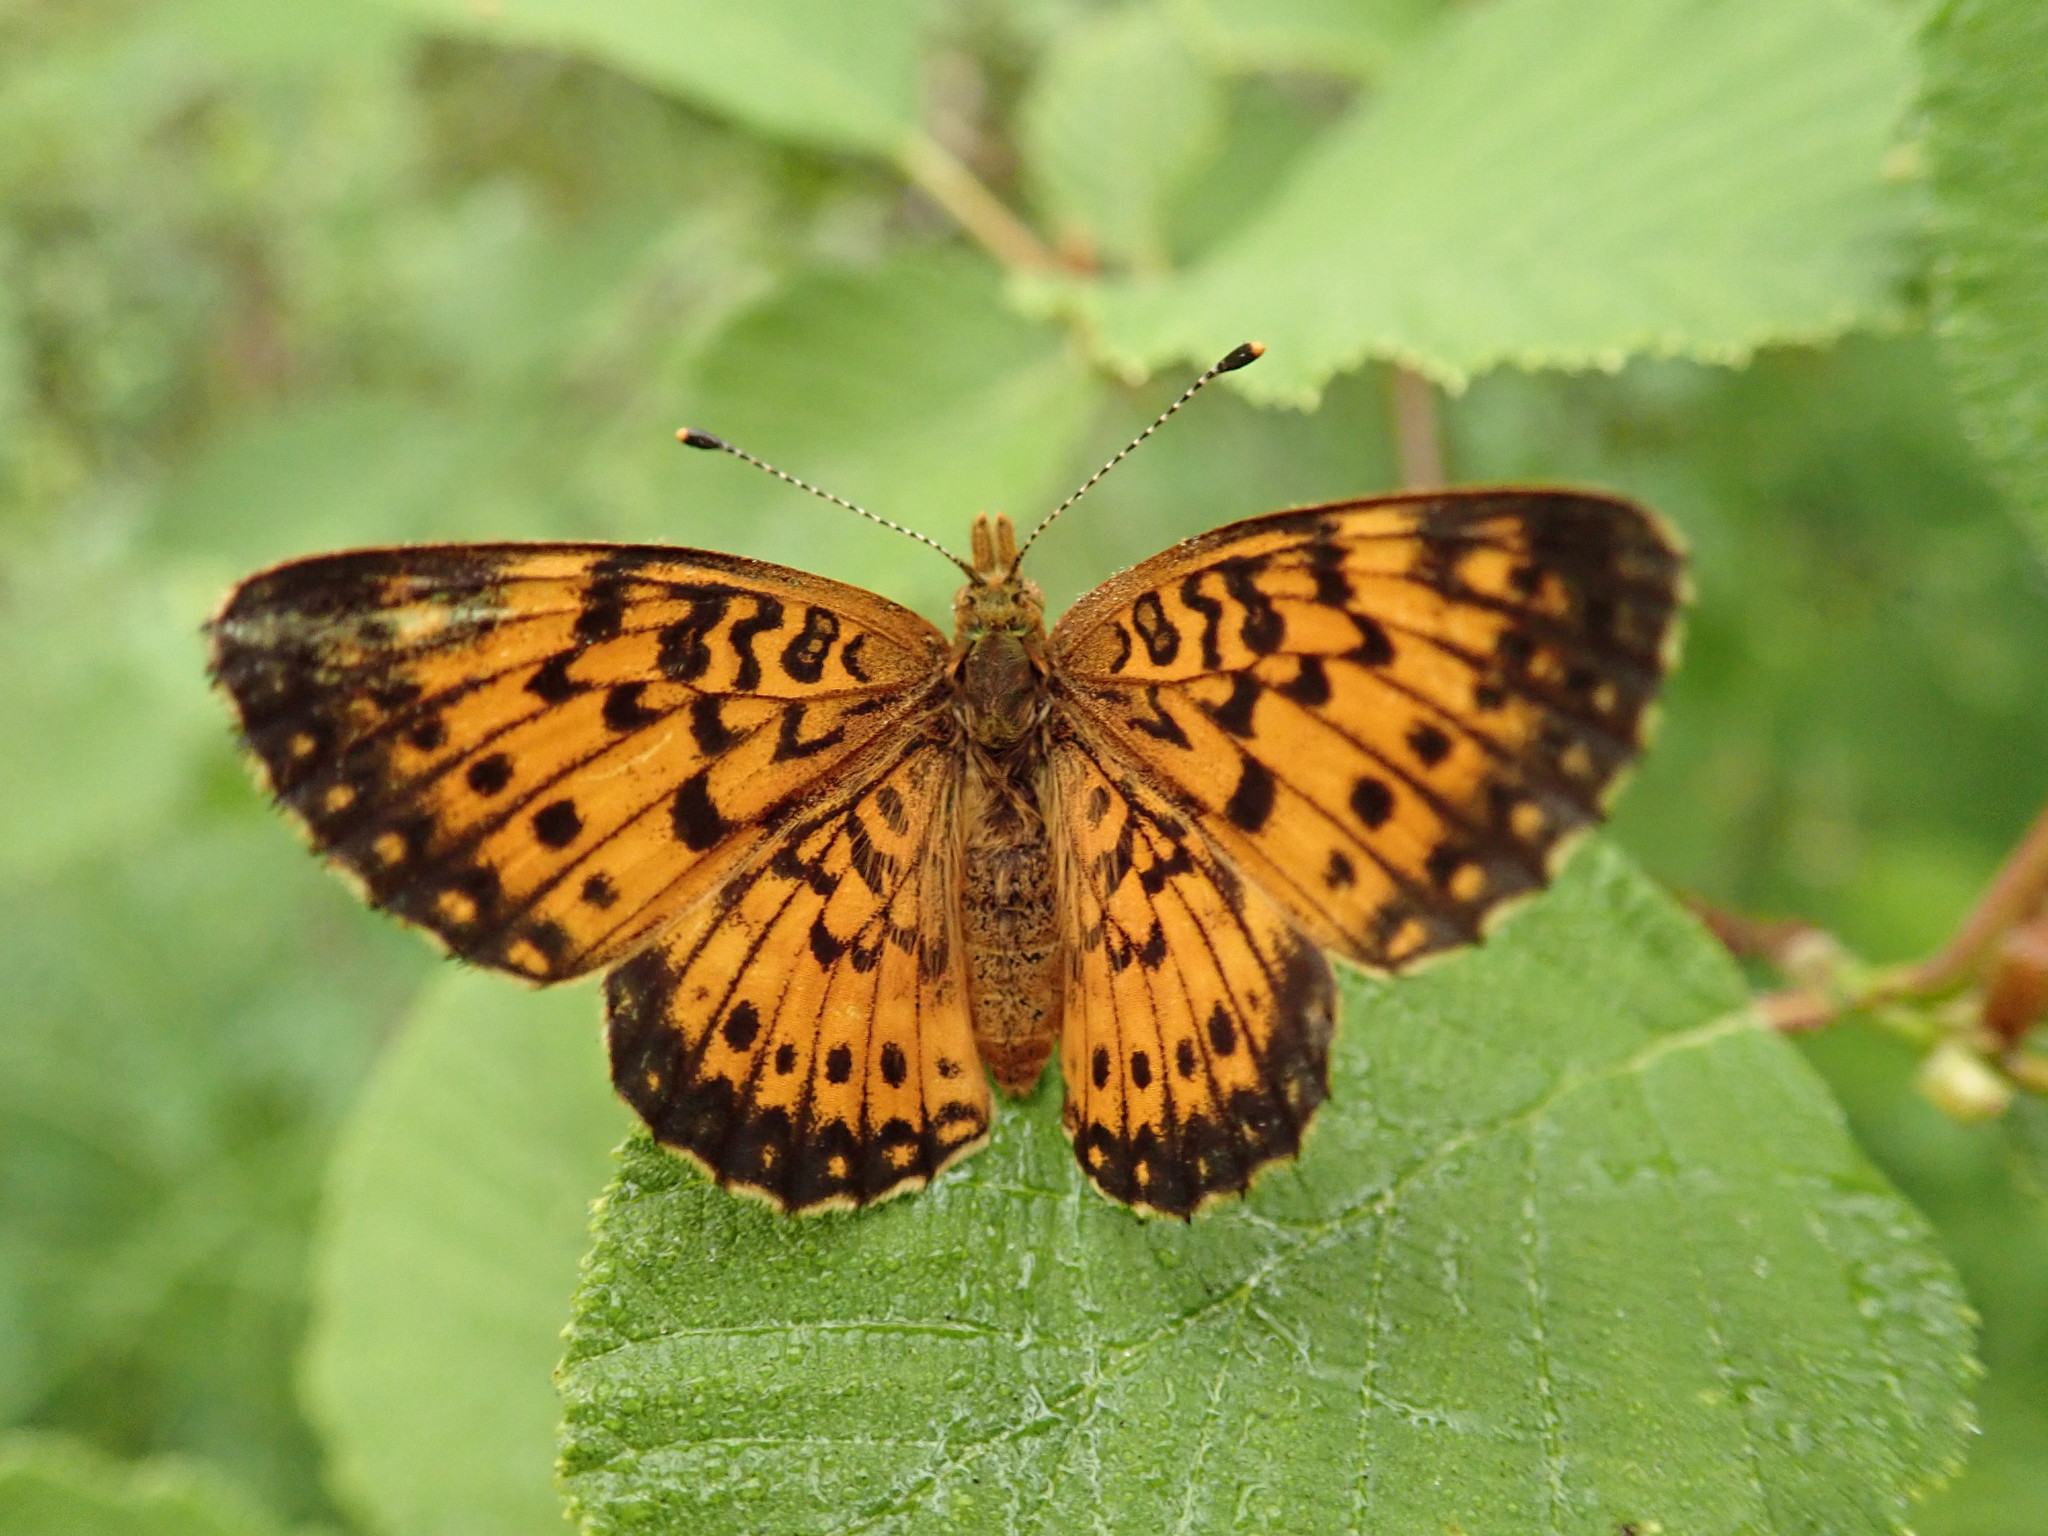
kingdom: Animalia
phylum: Arthropoda
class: Insecta
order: Lepidoptera
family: Nymphalidae
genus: Boloria
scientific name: Boloria
